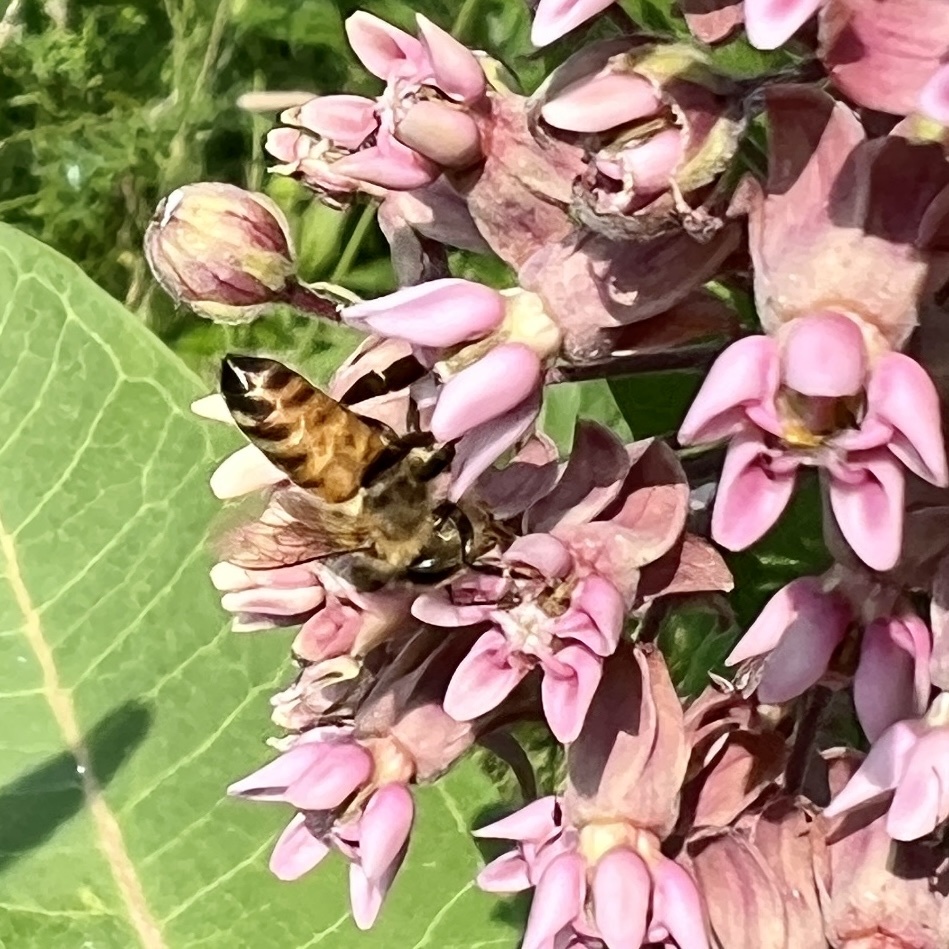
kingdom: Animalia
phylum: Arthropoda
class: Insecta
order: Hymenoptera
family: Apidae
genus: Apis
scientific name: Apis mellifera
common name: Honey bee
